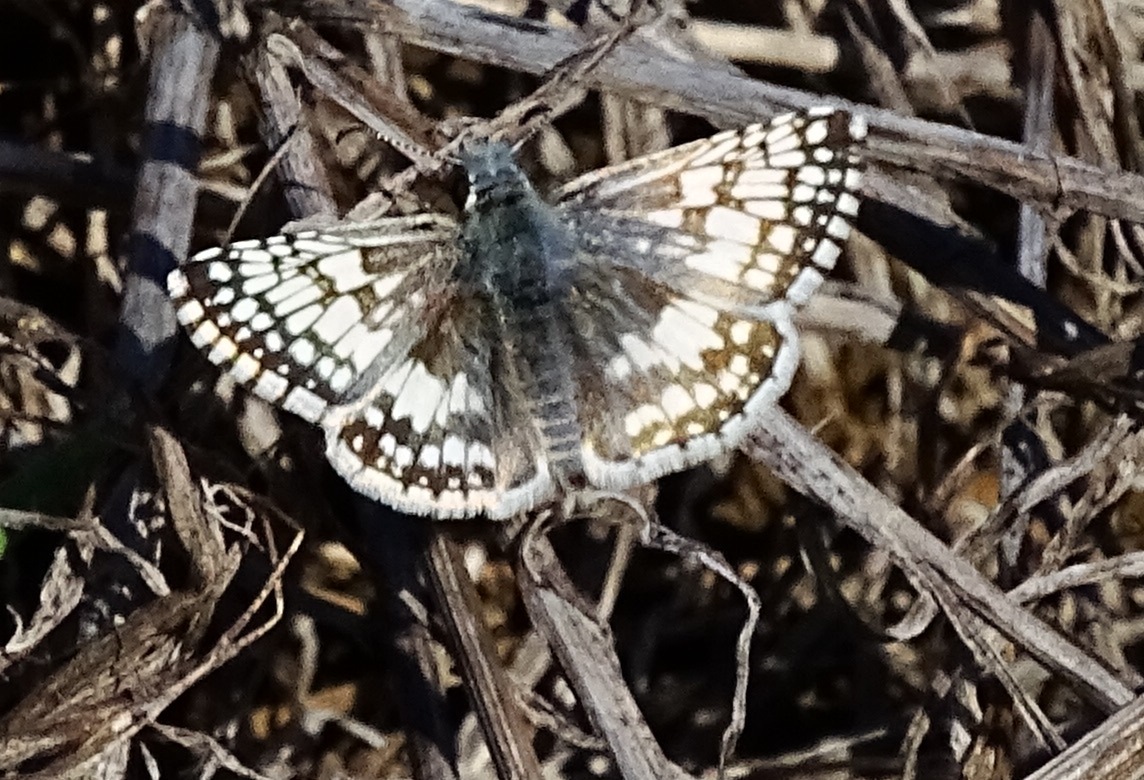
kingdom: Animalia
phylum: Arthropoda
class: Insecta
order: Lepidoptera
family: Hesperiidae
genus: Burnsius
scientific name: Burnsius albezens
